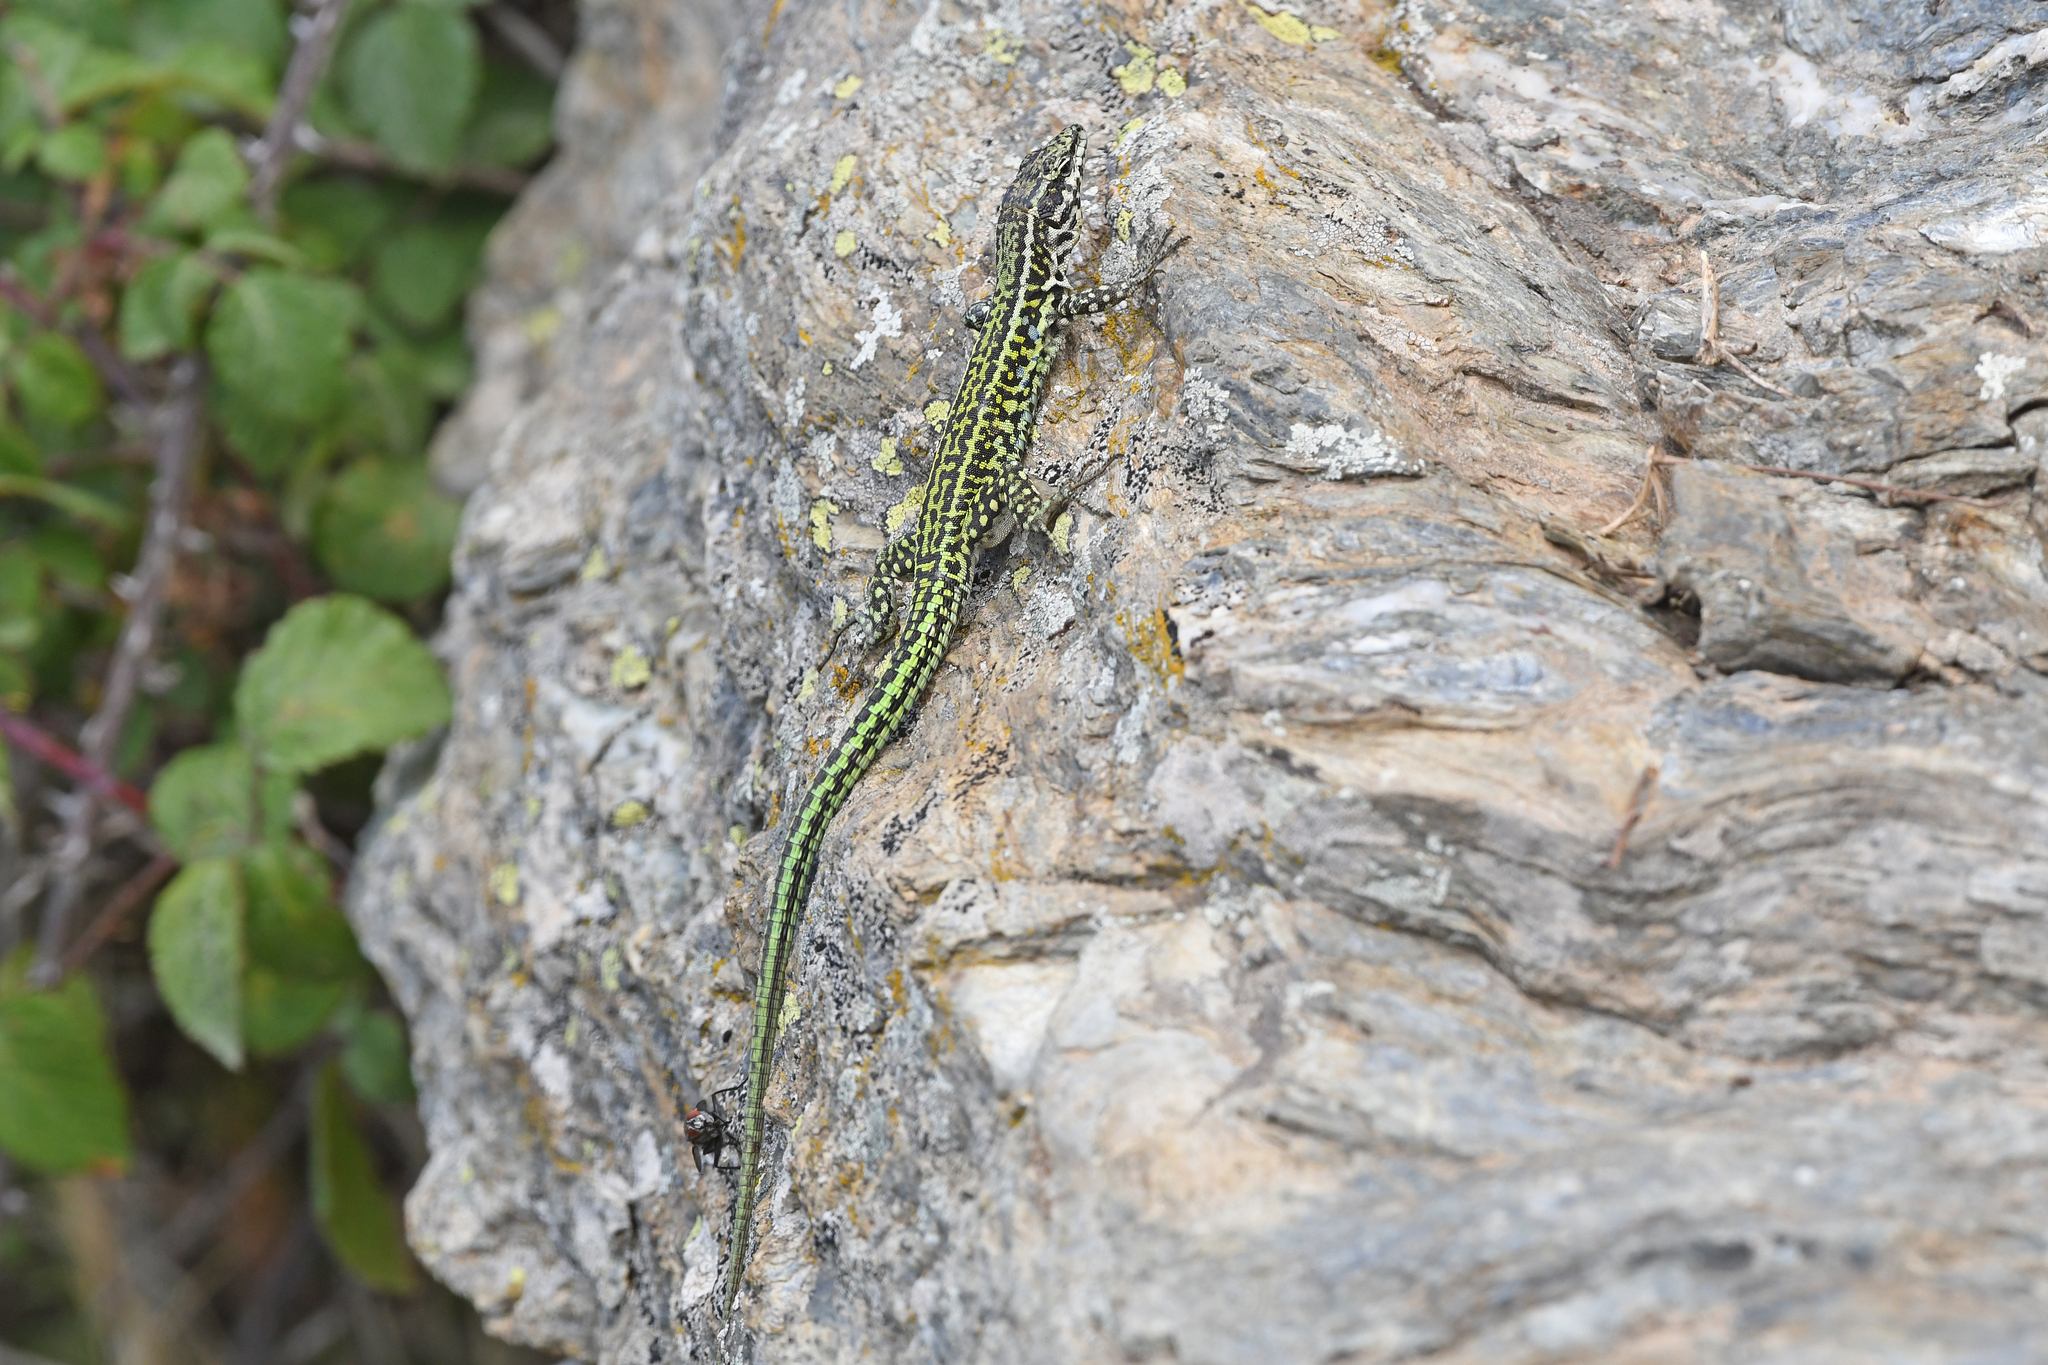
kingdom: Animalia
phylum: Chordata
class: Squamata
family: Lacertidae
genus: Podarcis
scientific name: Podarcis tiliguerta
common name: Tyrrhenian wall lizard
